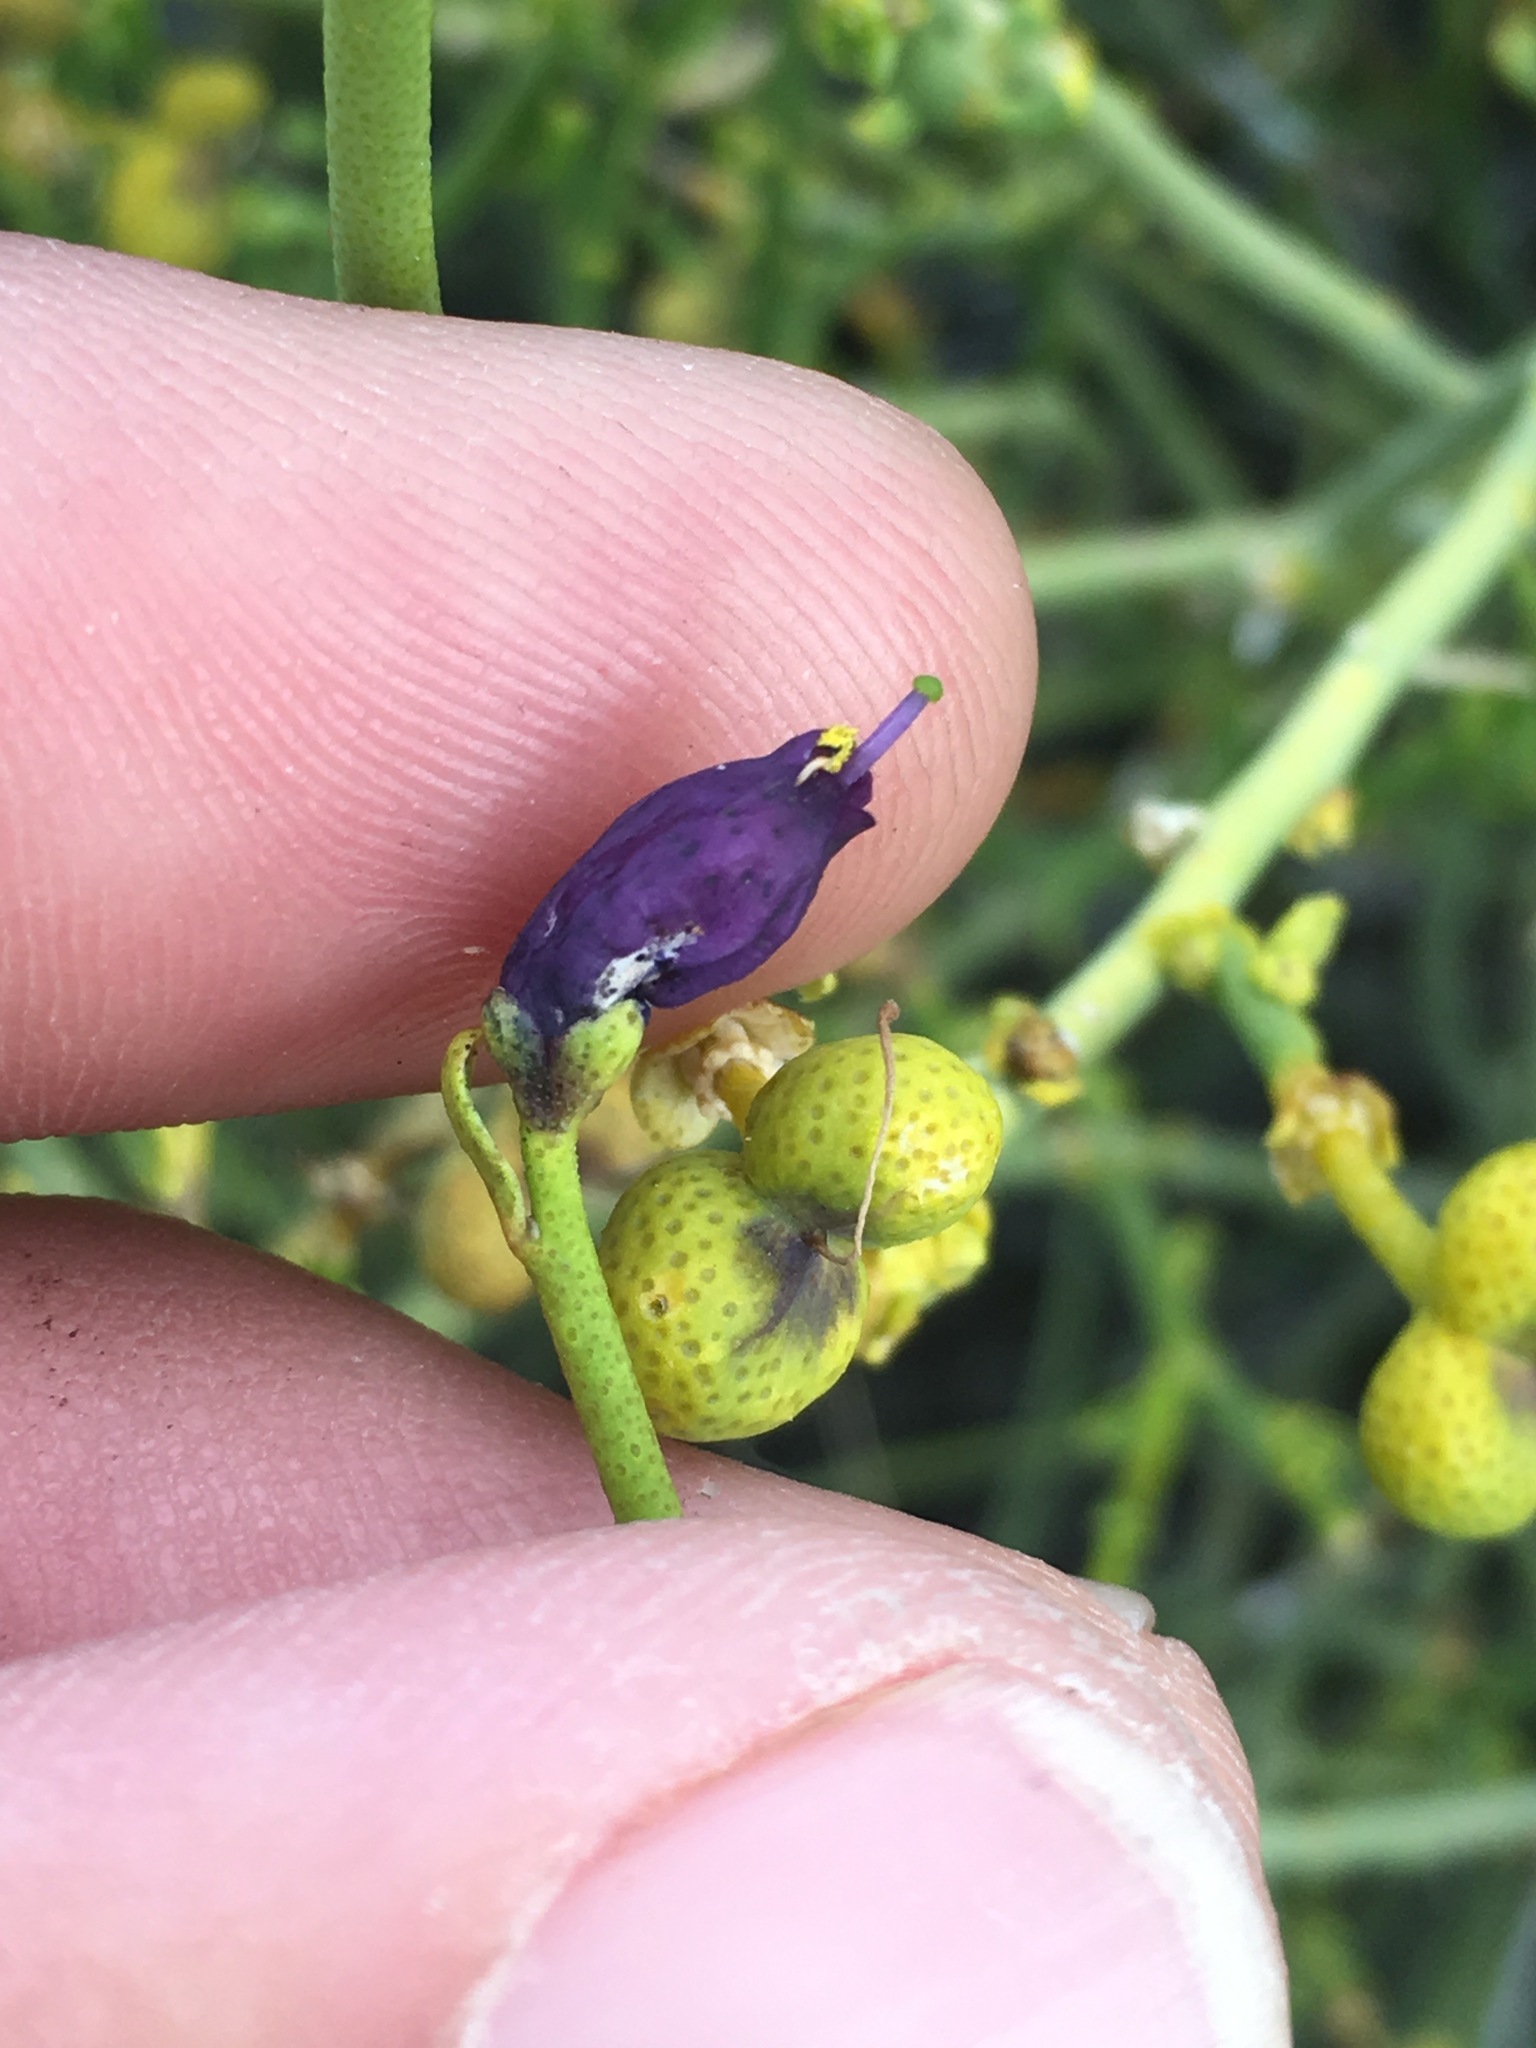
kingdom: Plantae
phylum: Tracheophyta
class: Magnoliopsida
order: Sapindales
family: Rutaceae
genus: Thamnosma
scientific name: Thamnosma montana
